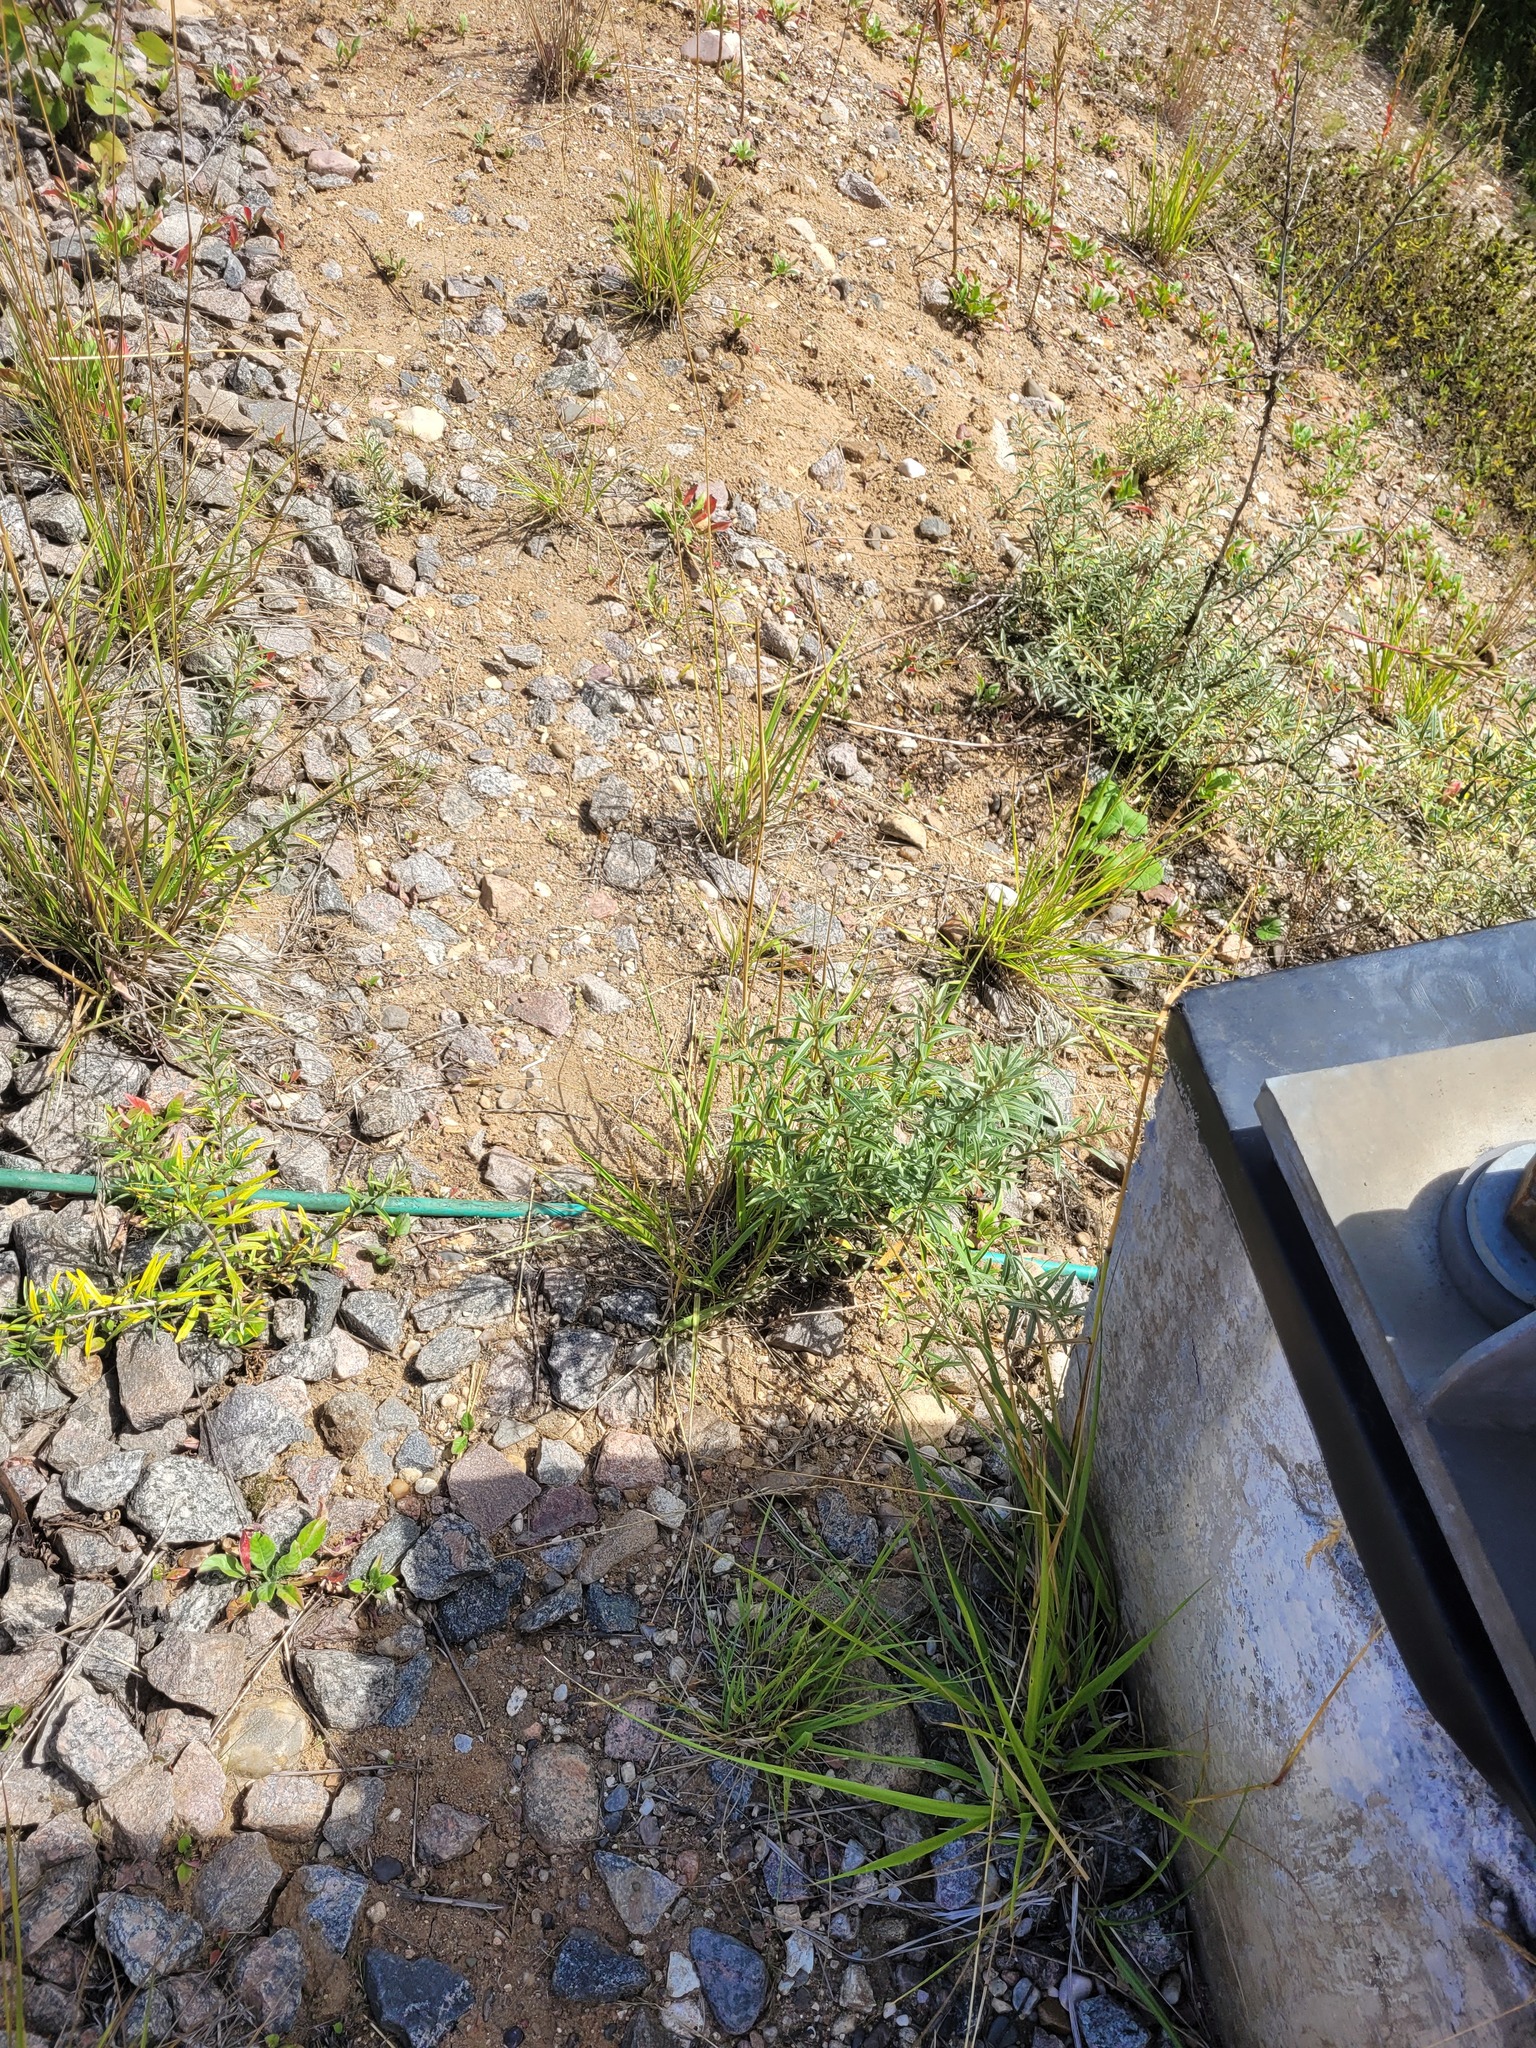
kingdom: Plantae
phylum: Tracheophyta
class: Magnoliopsida
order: Rosales
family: Elaeagnaceae
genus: Hippophae
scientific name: Hippophae rhamnoides
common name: Sea-buckthorn
